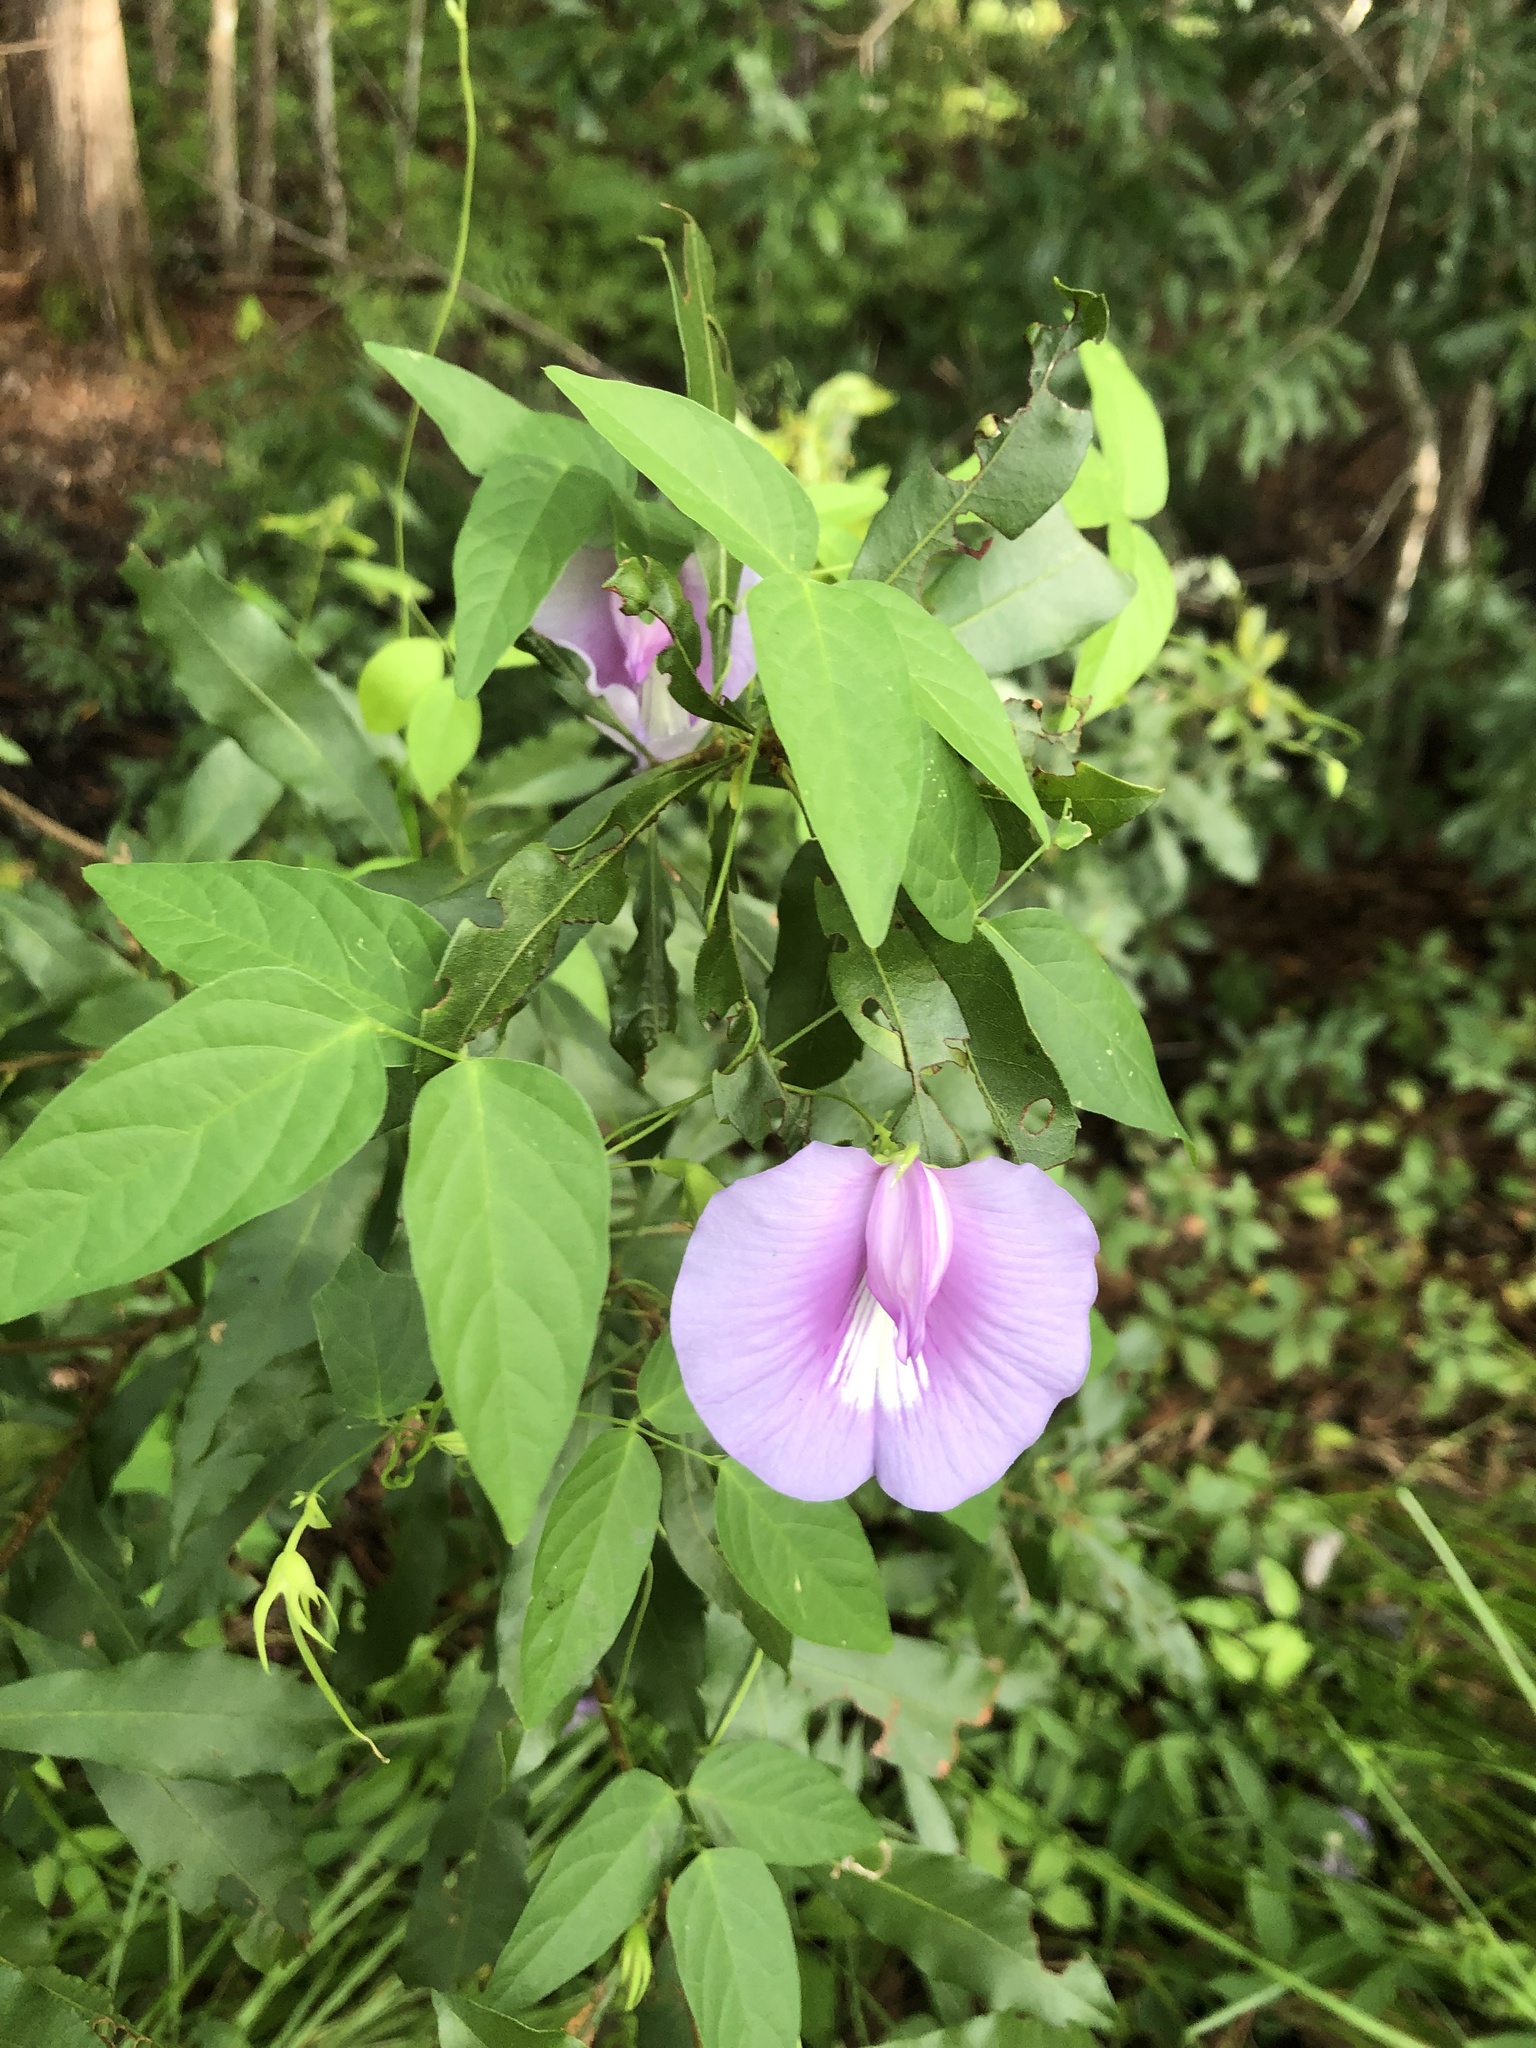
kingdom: Plantae
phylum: Tracheophyta
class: Magnoliopsida
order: Fabales
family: Fabaceae
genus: Centrosema
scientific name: Centrosema virginianum
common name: Butterfly-pea
